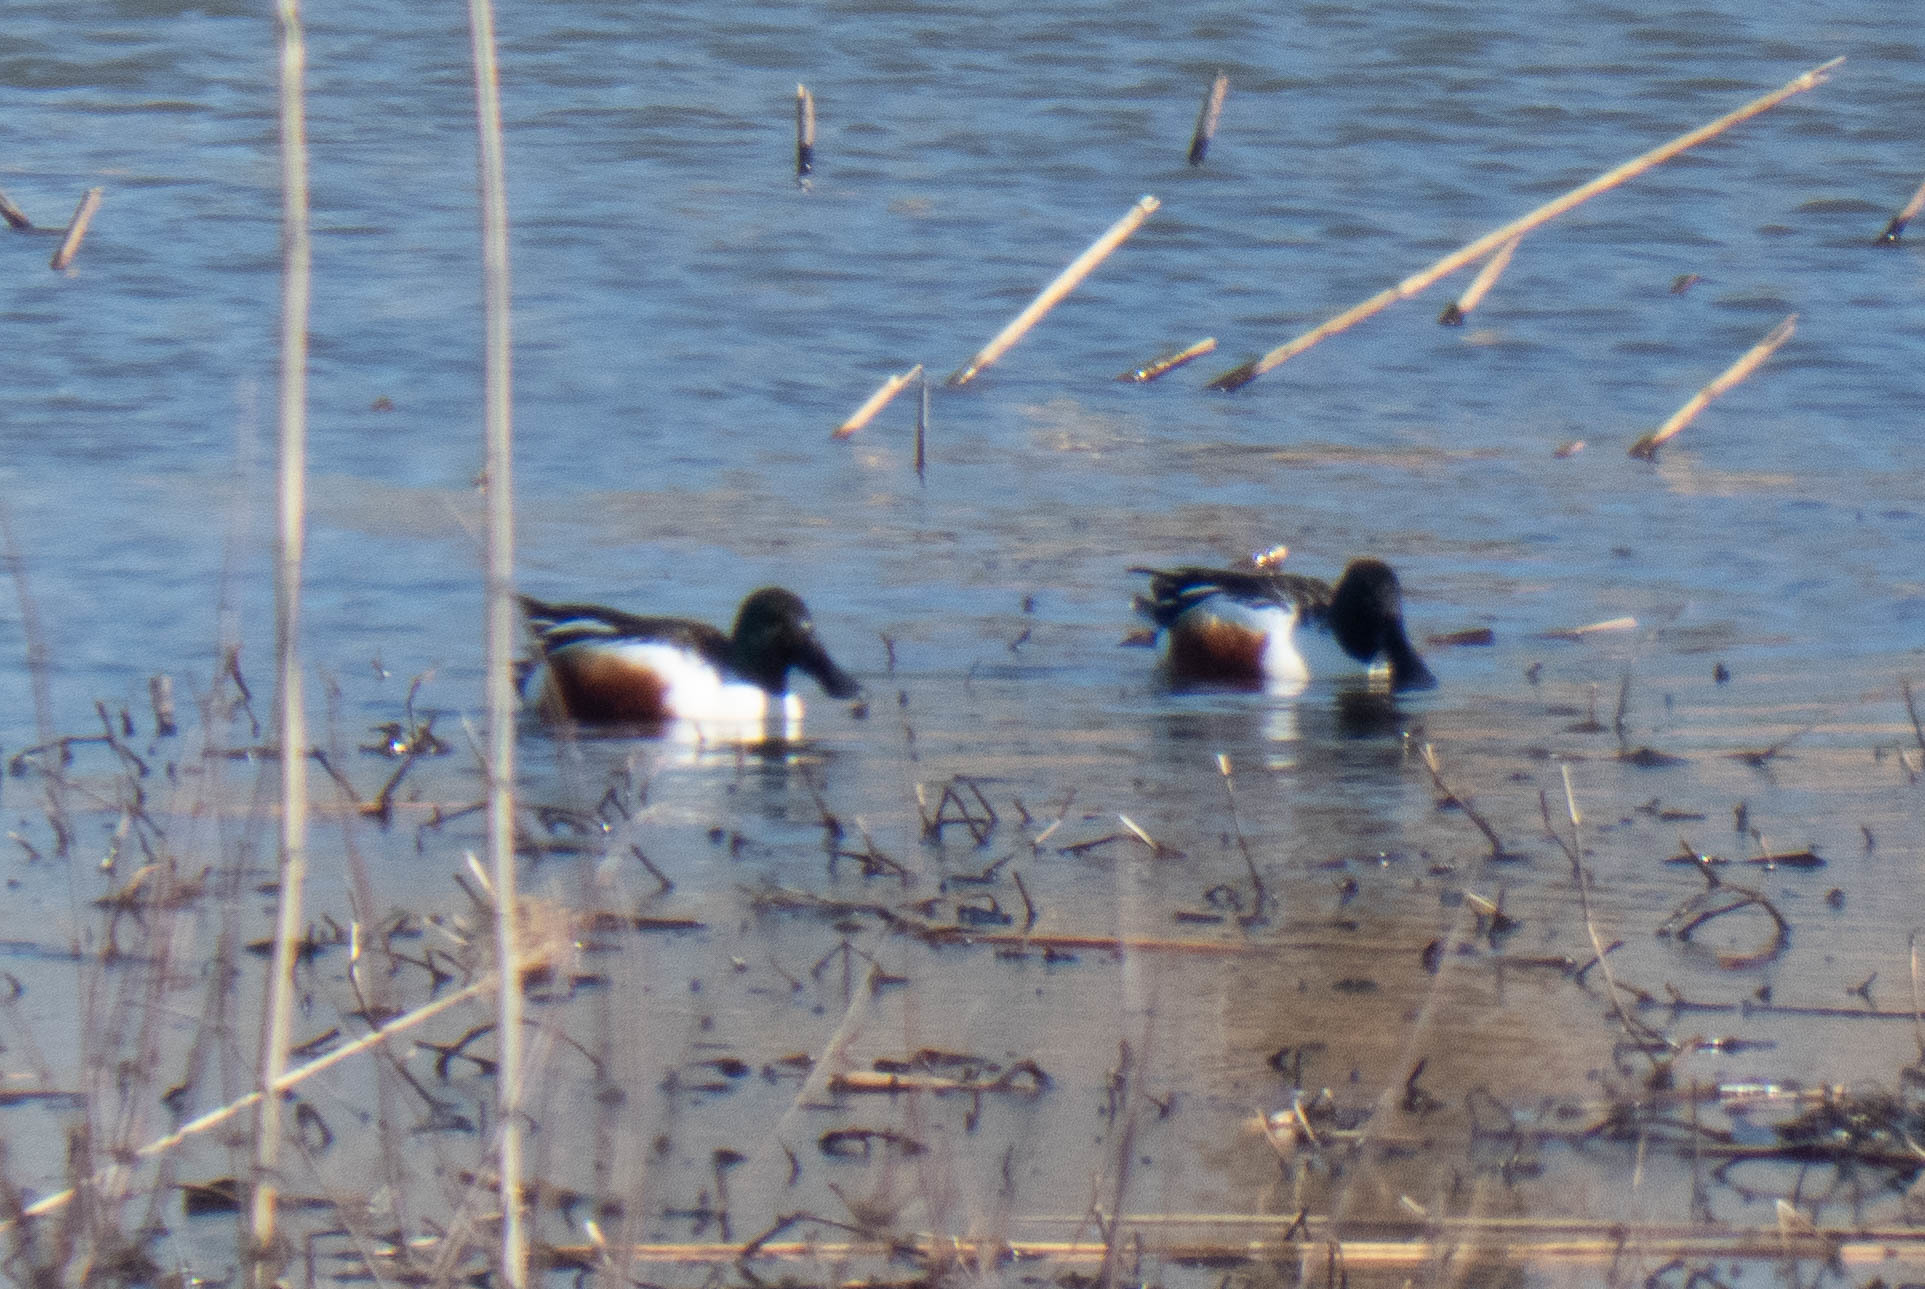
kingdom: Animalia
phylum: Chordata
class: Aves
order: Anseriformes
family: Anatidae
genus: Spatula
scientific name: Spatula clypeata
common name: Northern shoveler
